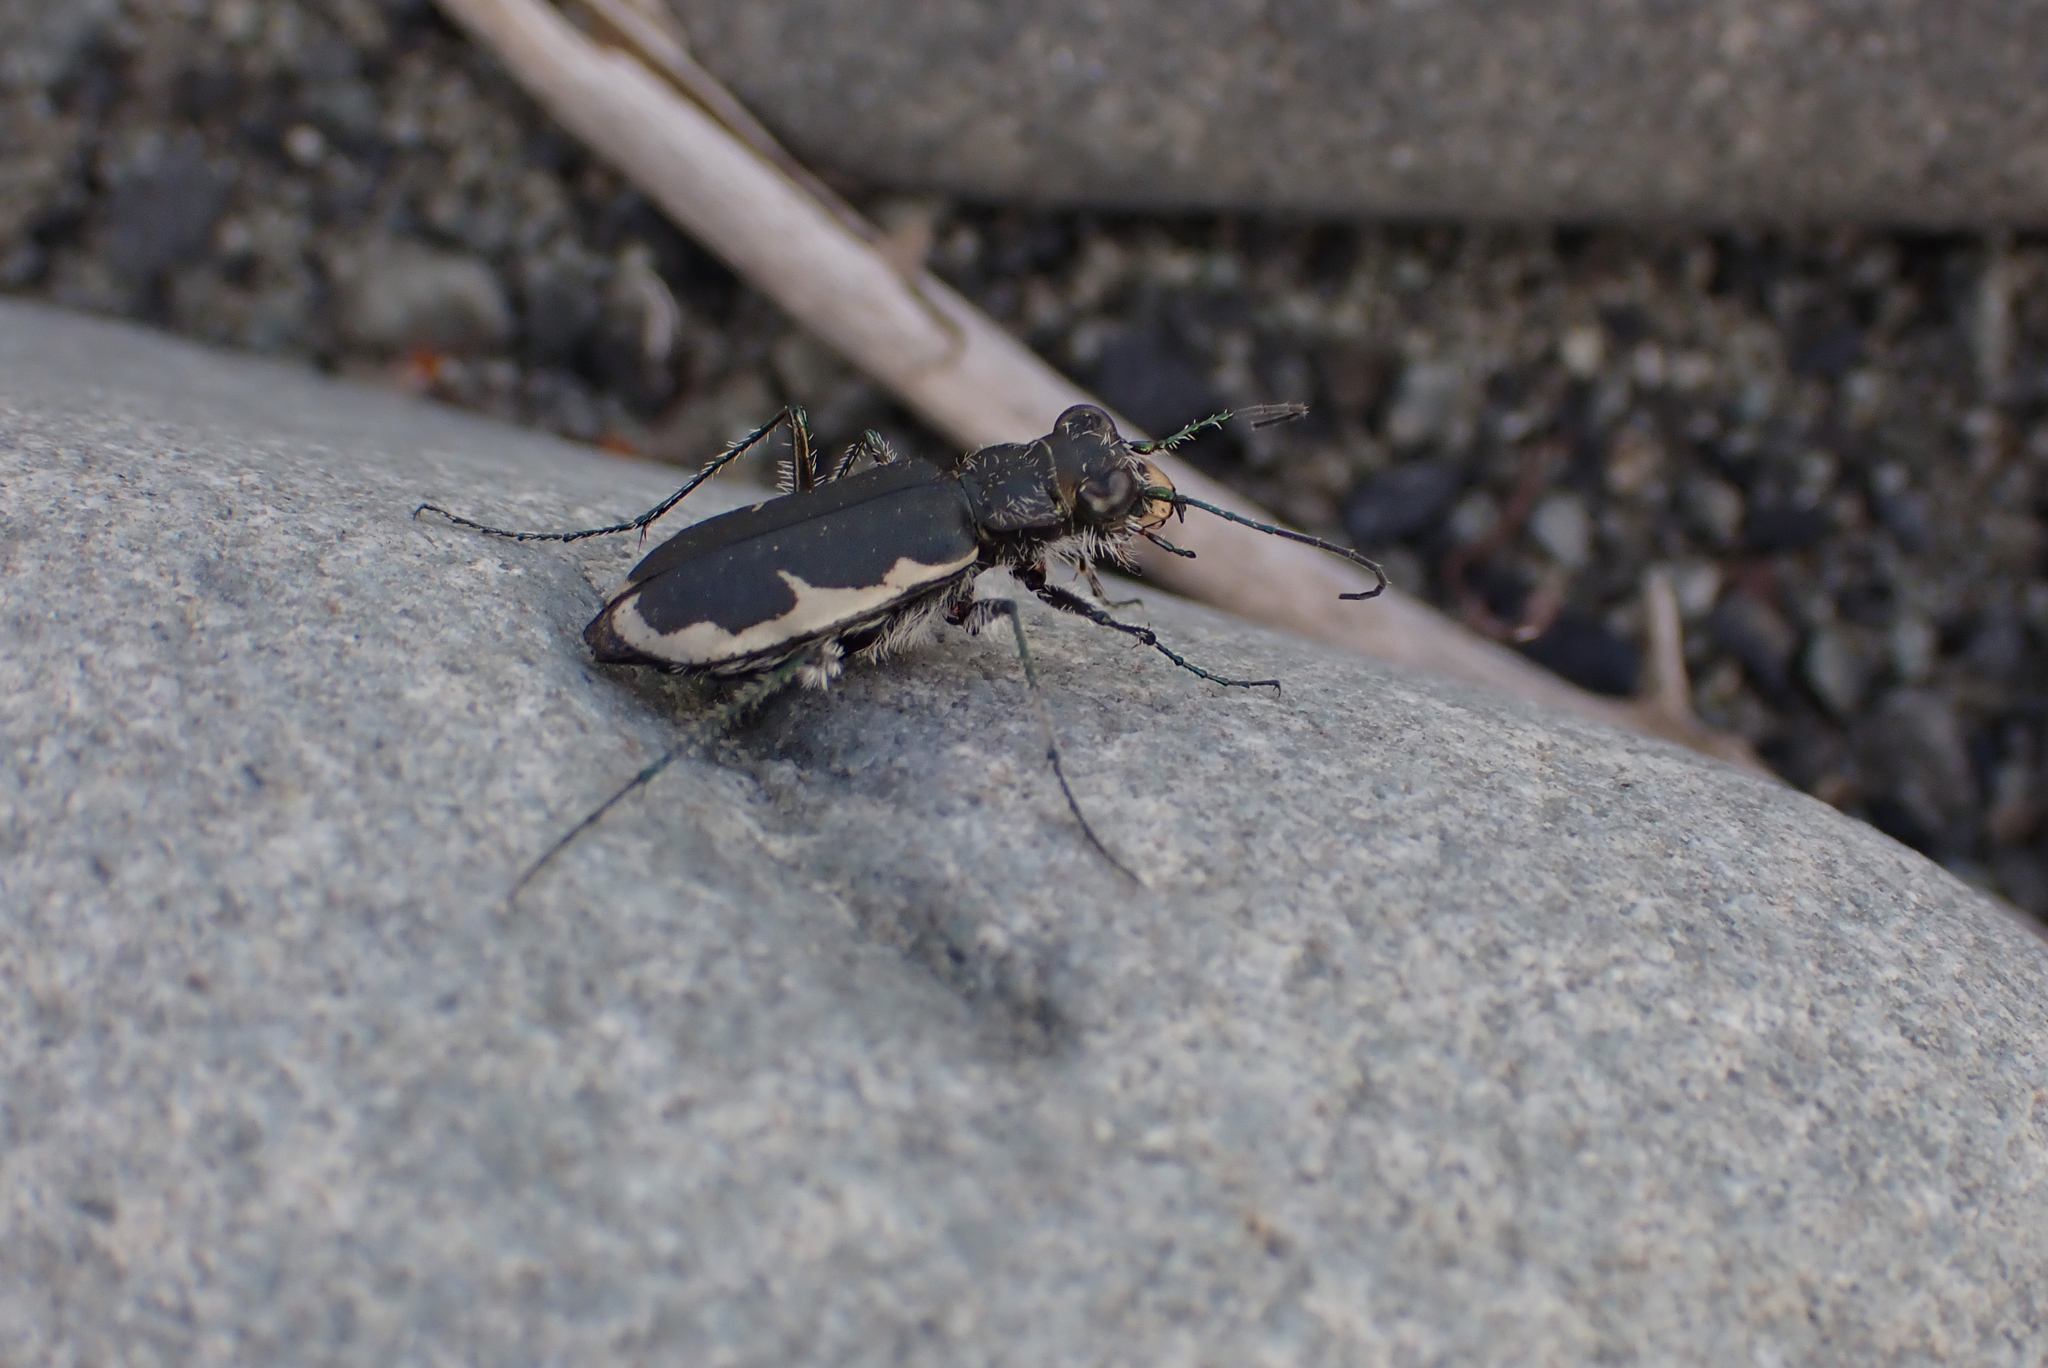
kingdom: Animalia
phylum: Arthropoda
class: Insecta
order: Coleoptera
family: Carabidae
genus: Zecicindela
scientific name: Zecicindela hamiltoni
